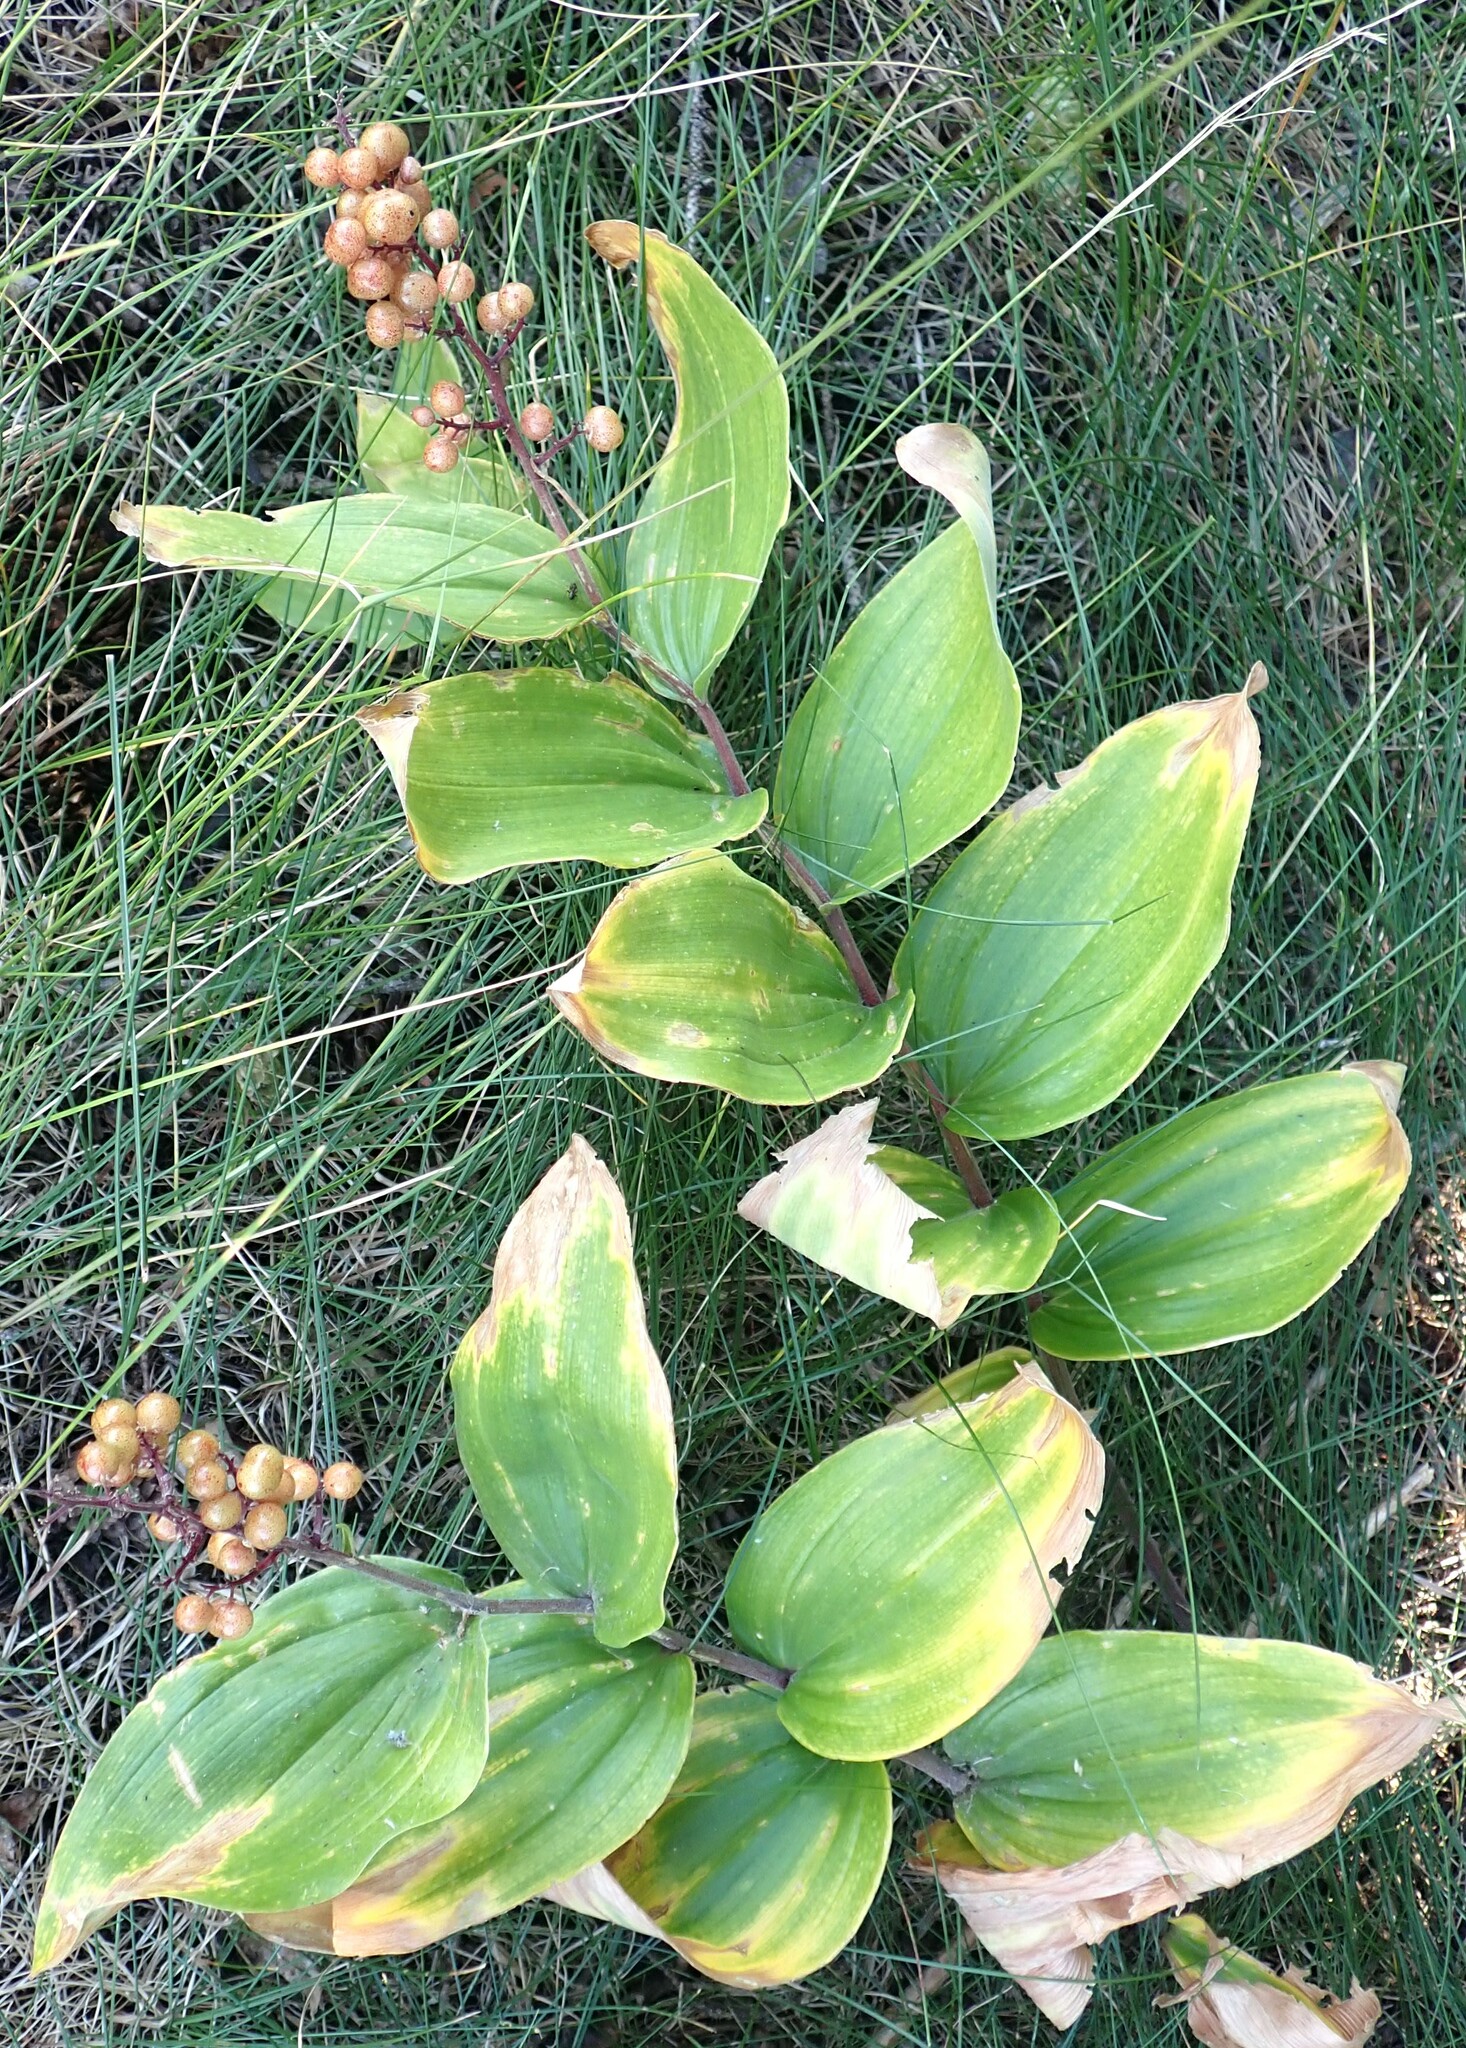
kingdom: Plantae
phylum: Tracheophyta
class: Liliopsida
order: Asparagales
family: Asparagaceae
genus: Maianthemum
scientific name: Maianthemum racemosum
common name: False spikenard
